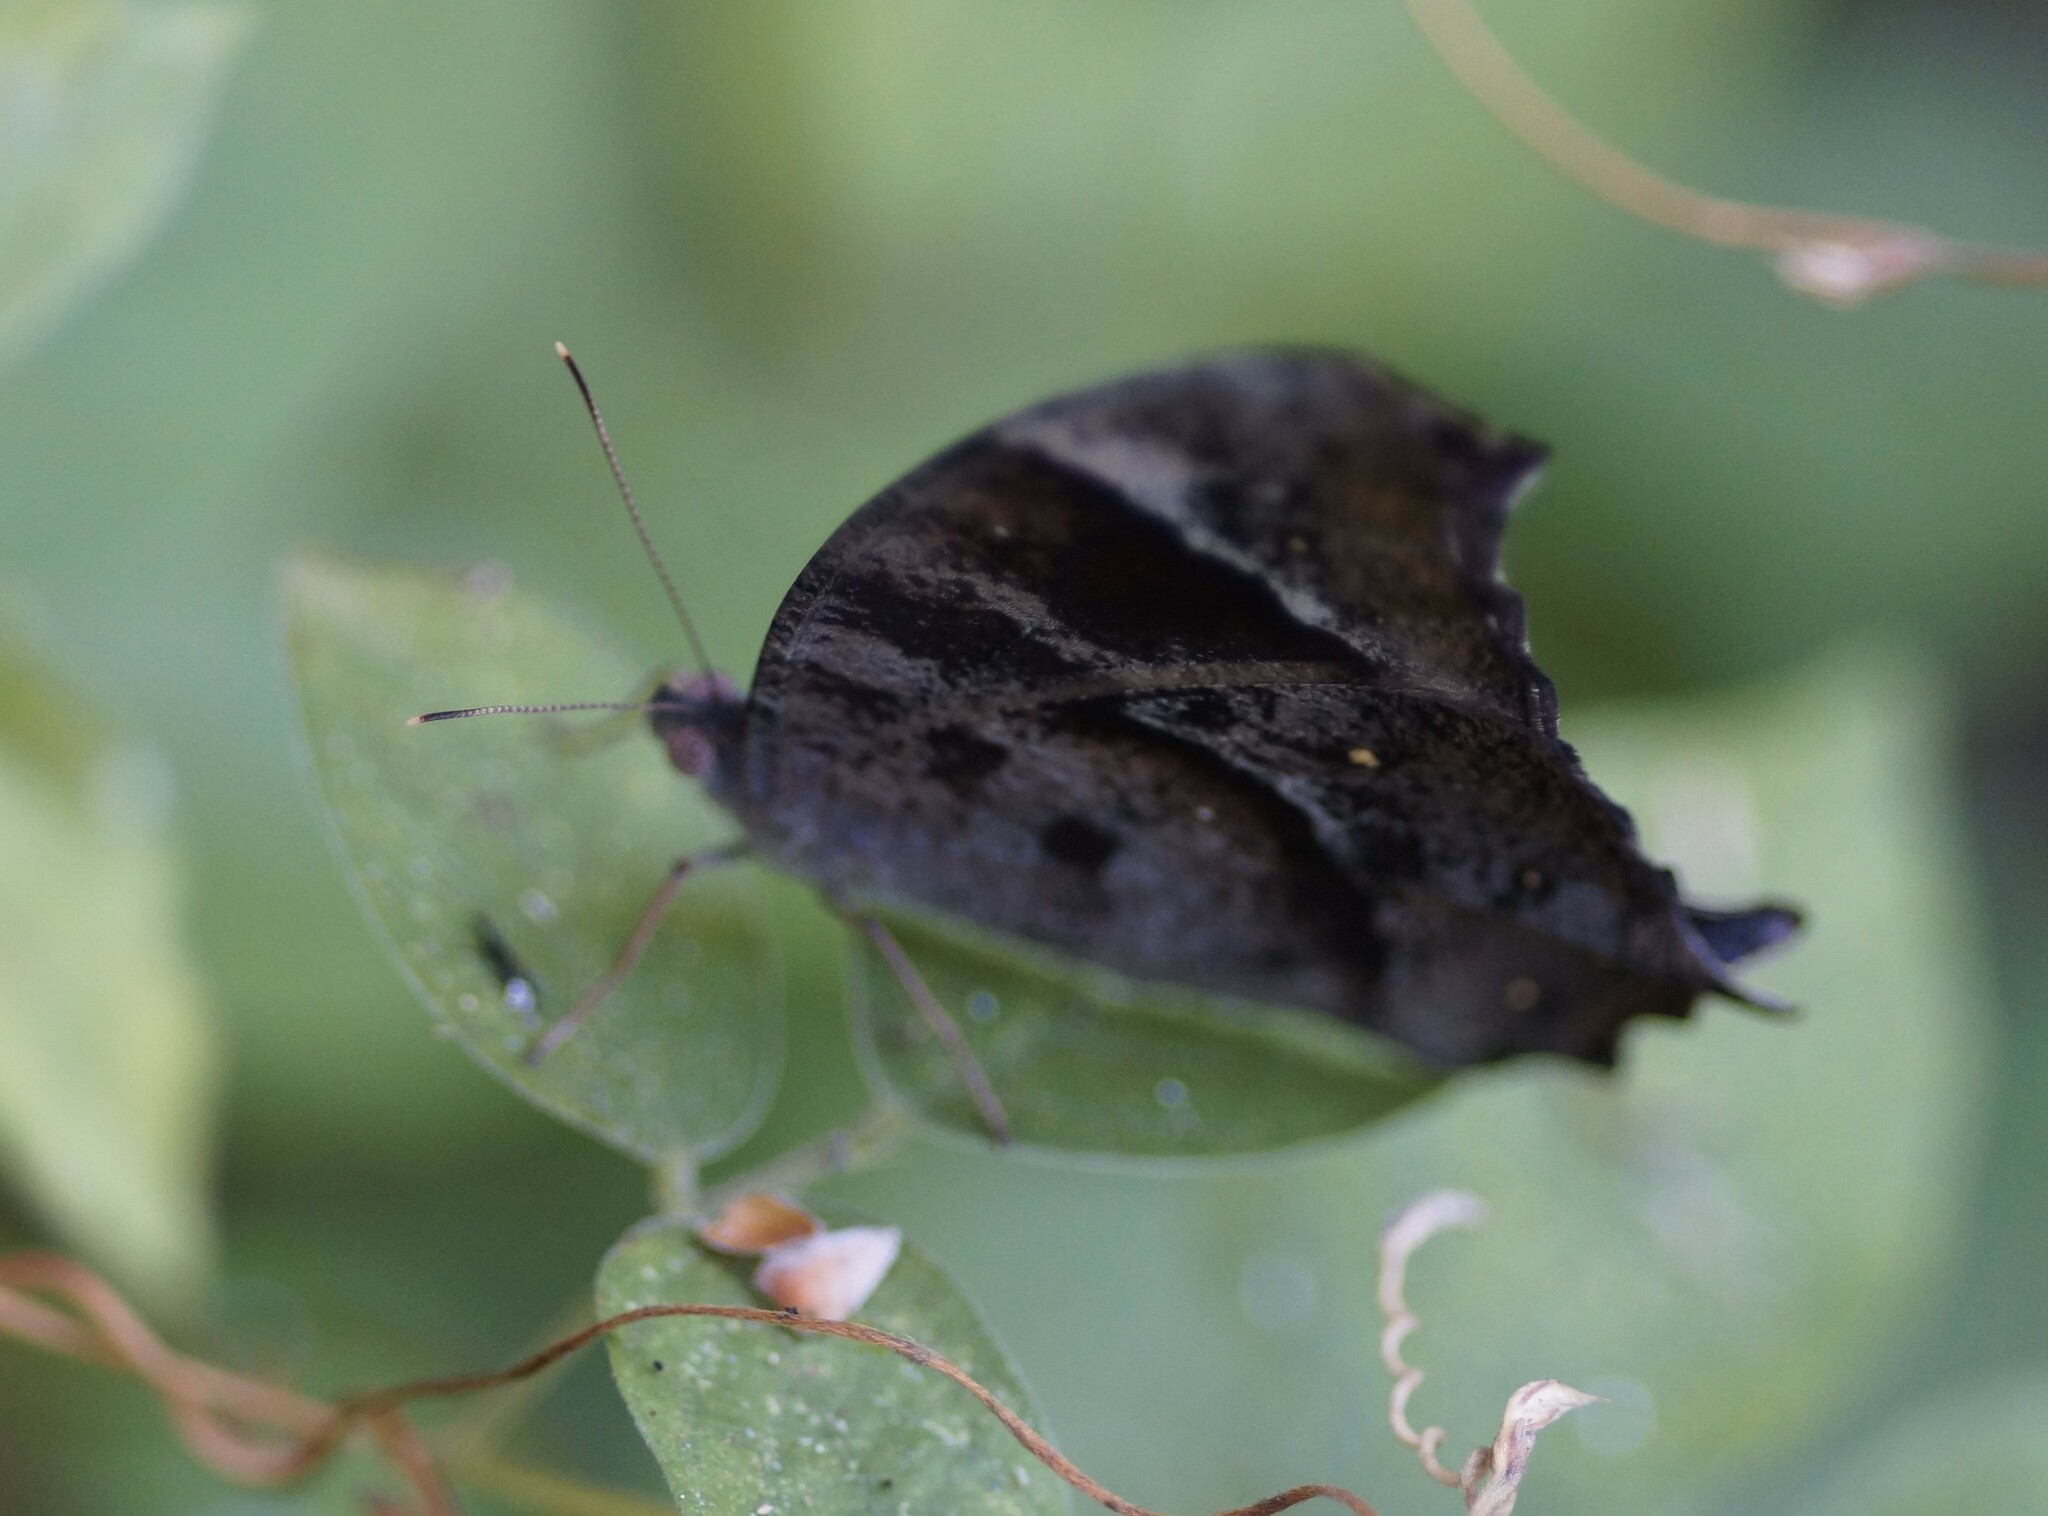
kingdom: Animalia
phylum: Arthropoda
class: Insecta
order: Lepidoptera
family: Nymphalidae
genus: Melanitis
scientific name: Melanitis leda
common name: Twilight brown
